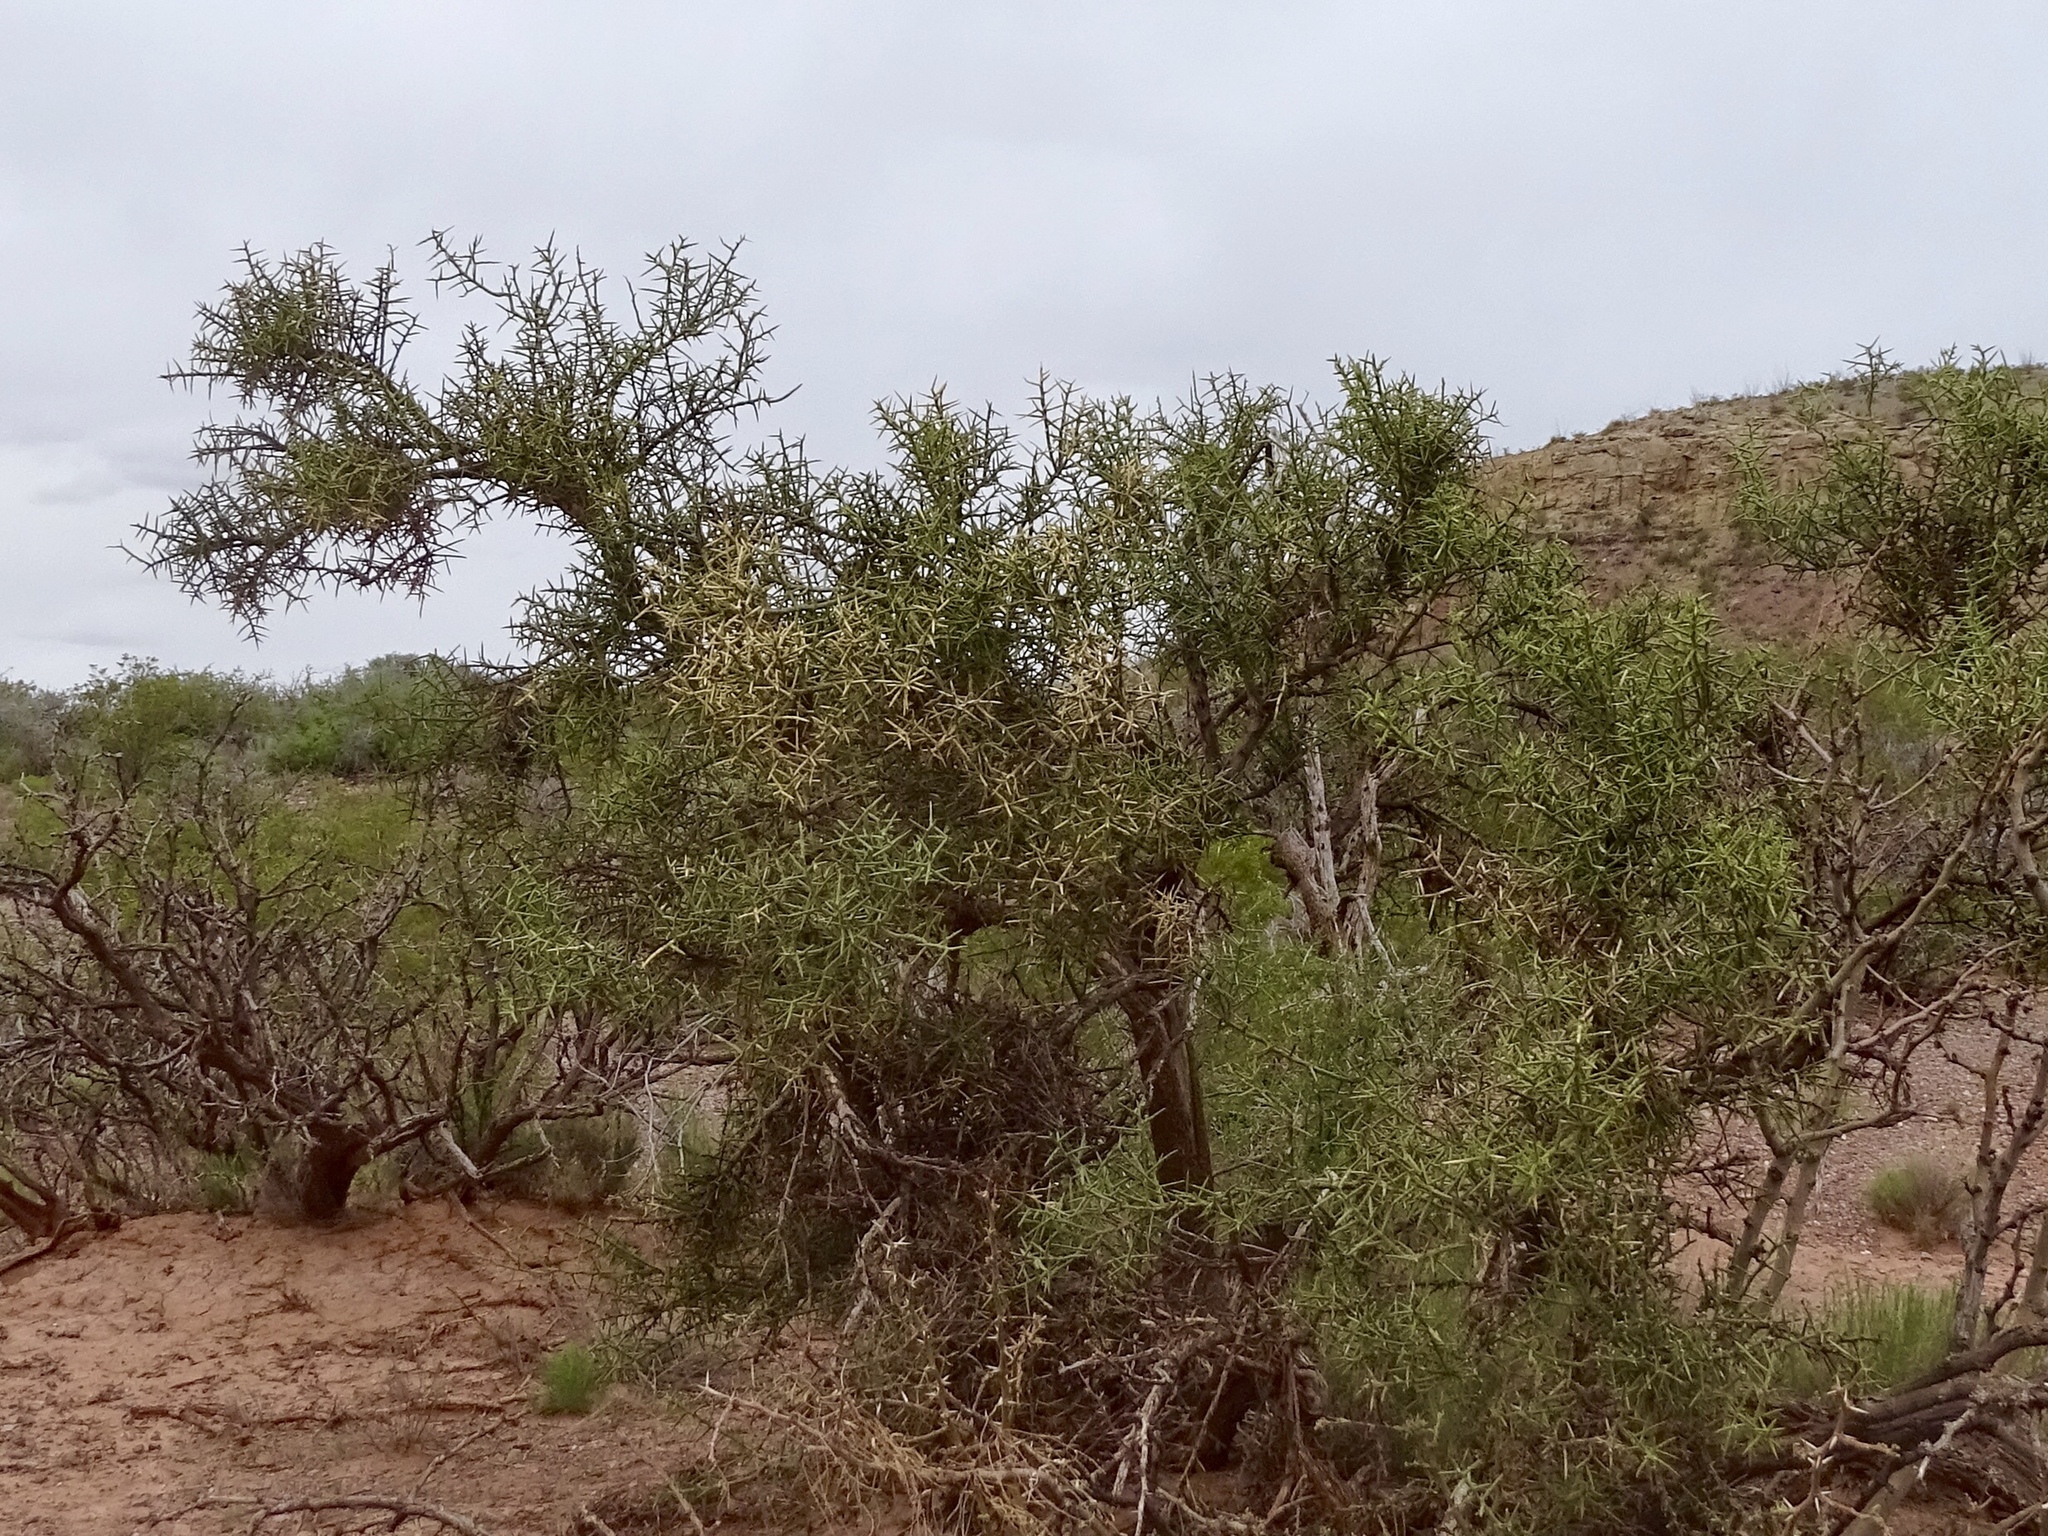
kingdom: Plantae
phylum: Tracheophyta
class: Magnoliopsida
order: Brassicales
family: Koeberliniaceae
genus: Koeberlinia
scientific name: Koeberlinia spinosa
